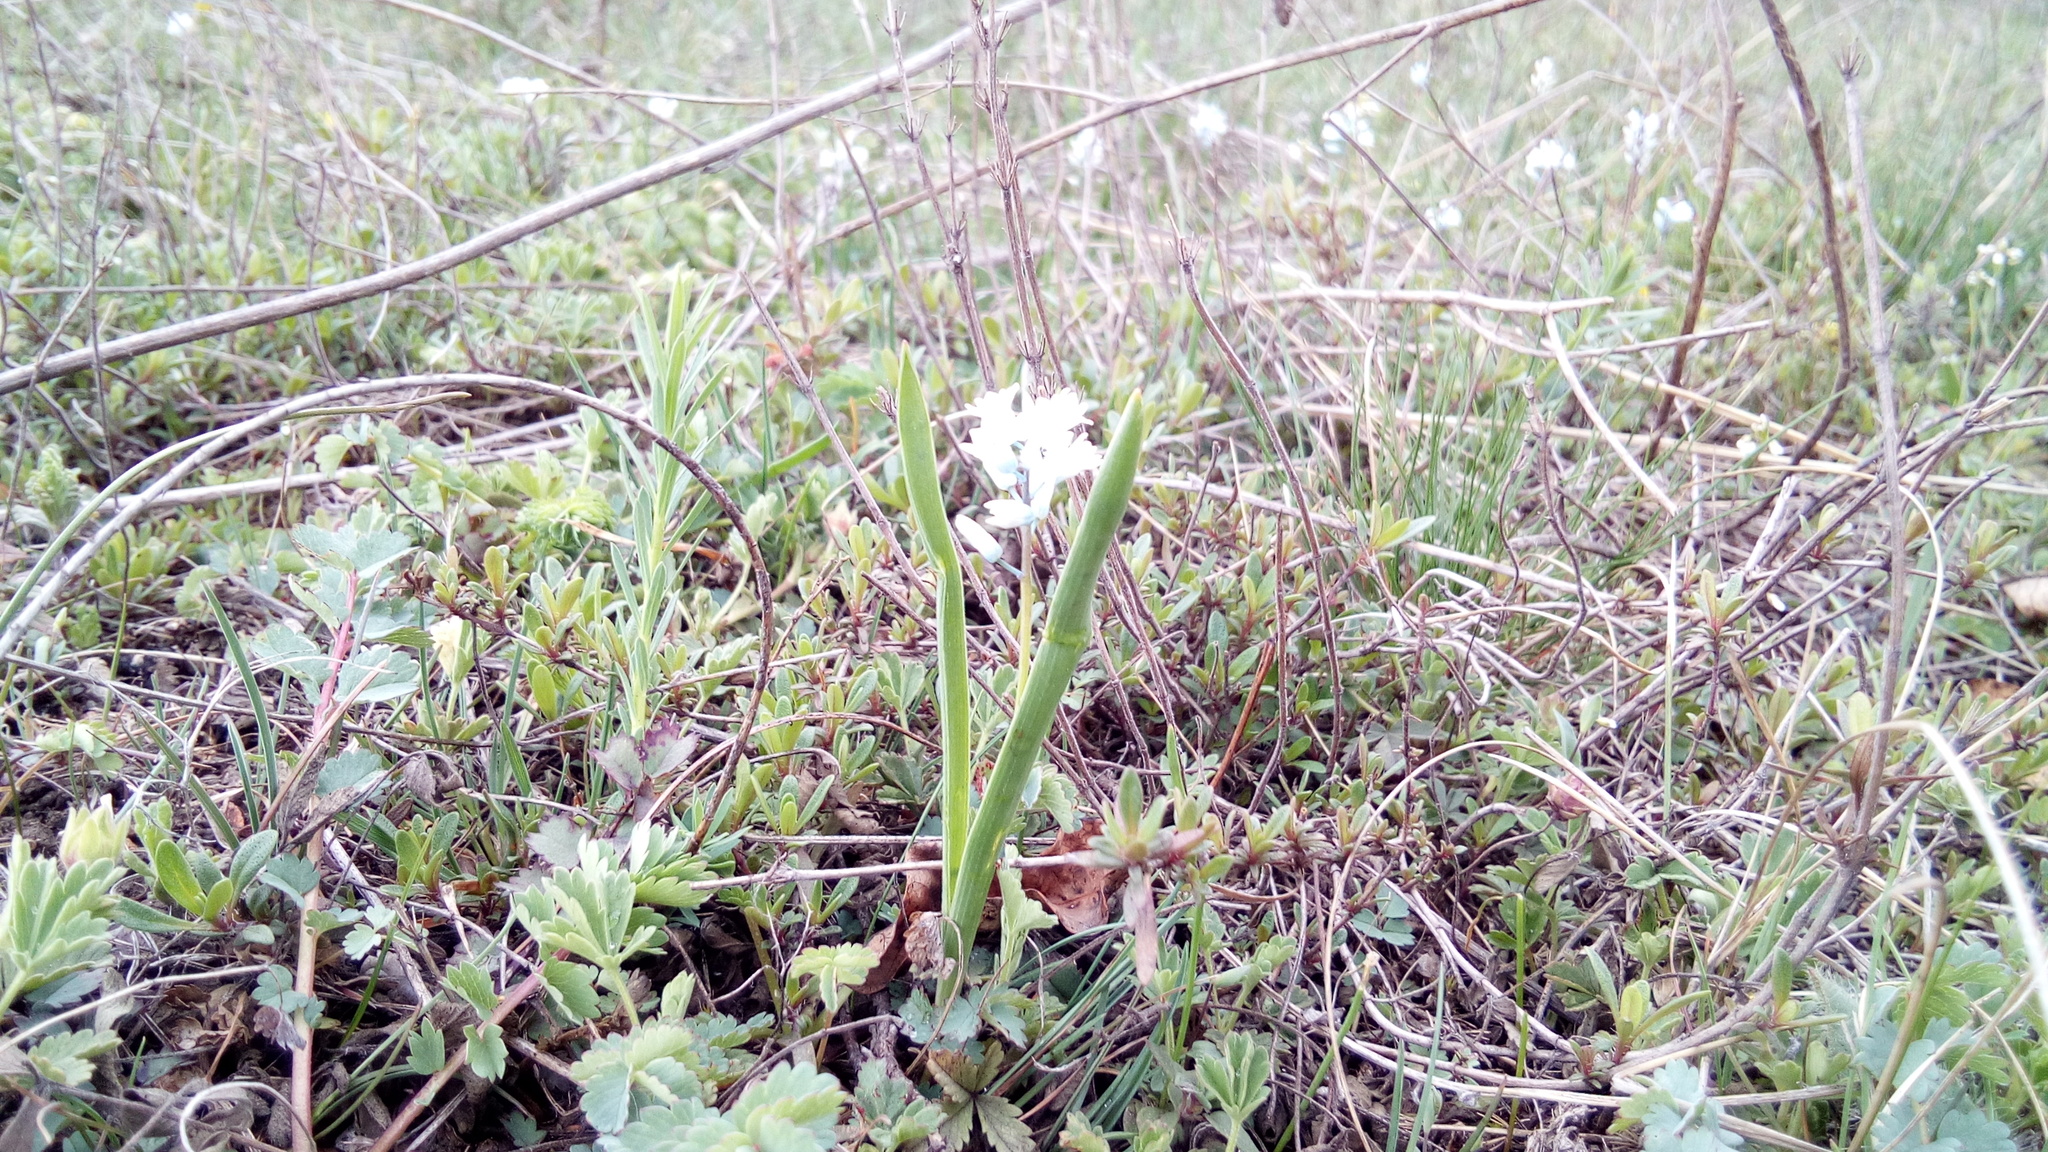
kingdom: Plantae
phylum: Tracheophyta
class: Liliopsida
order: Asparagales
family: Asparagaceae
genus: Hyacinthella
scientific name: Hyacinthella leucophaea
